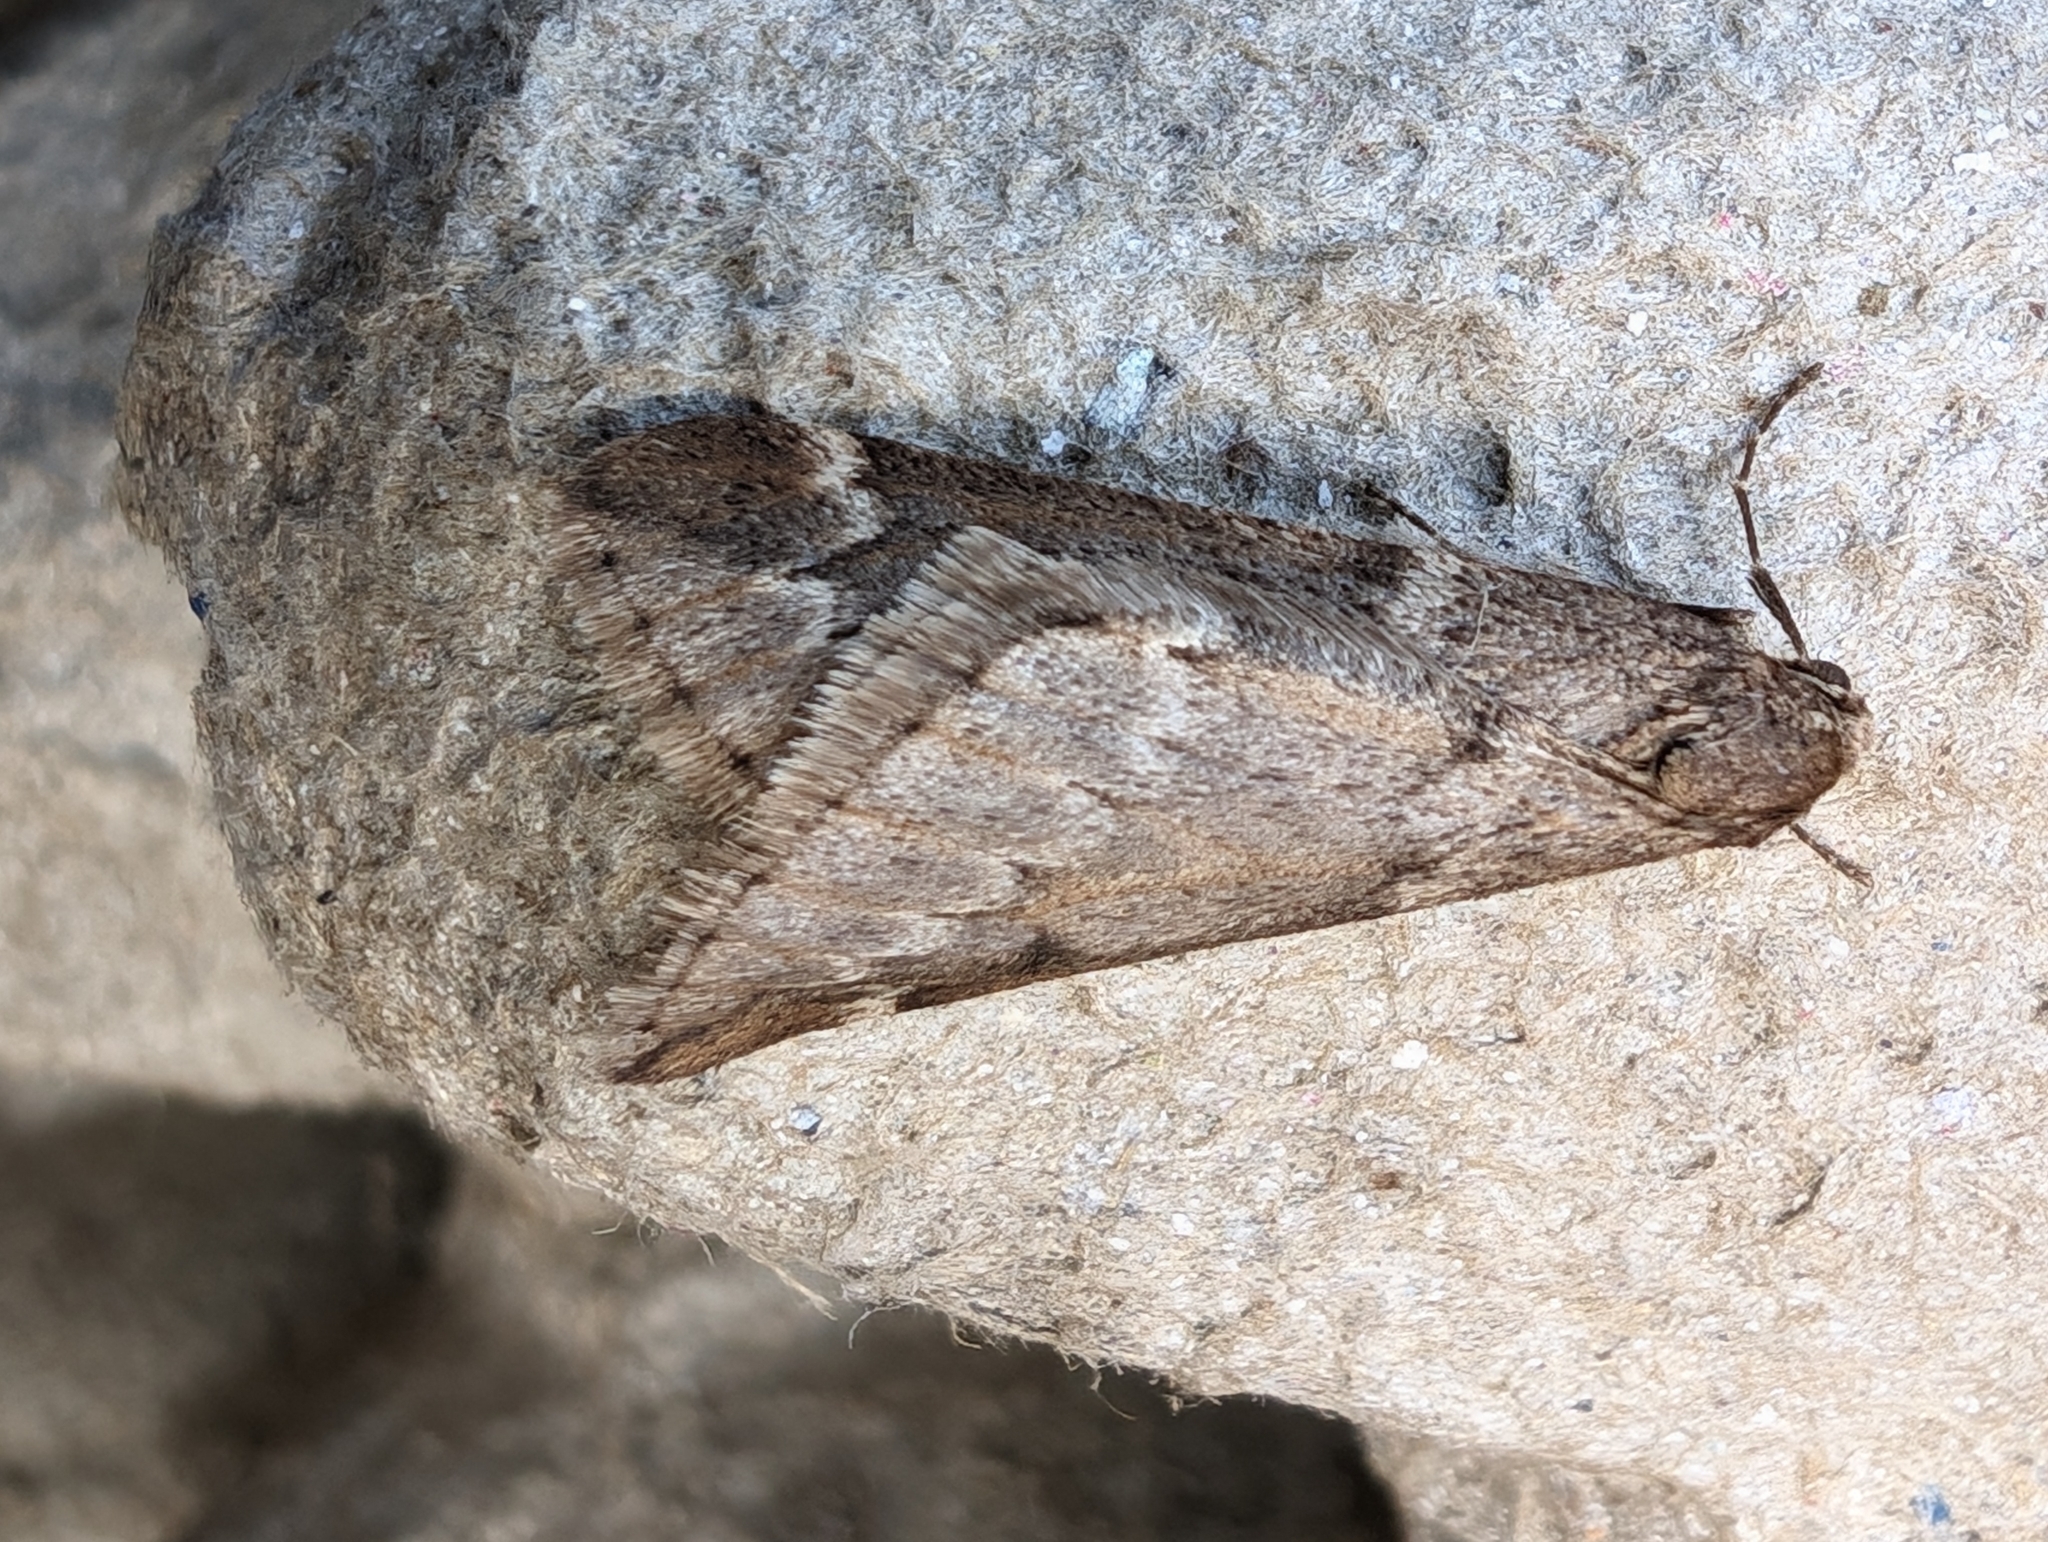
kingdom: Animalia
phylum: Arthropoda
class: Insecta
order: Lepidoptera
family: Geometridae
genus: Alsophila
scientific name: Alsophila aescularia
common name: March moth
